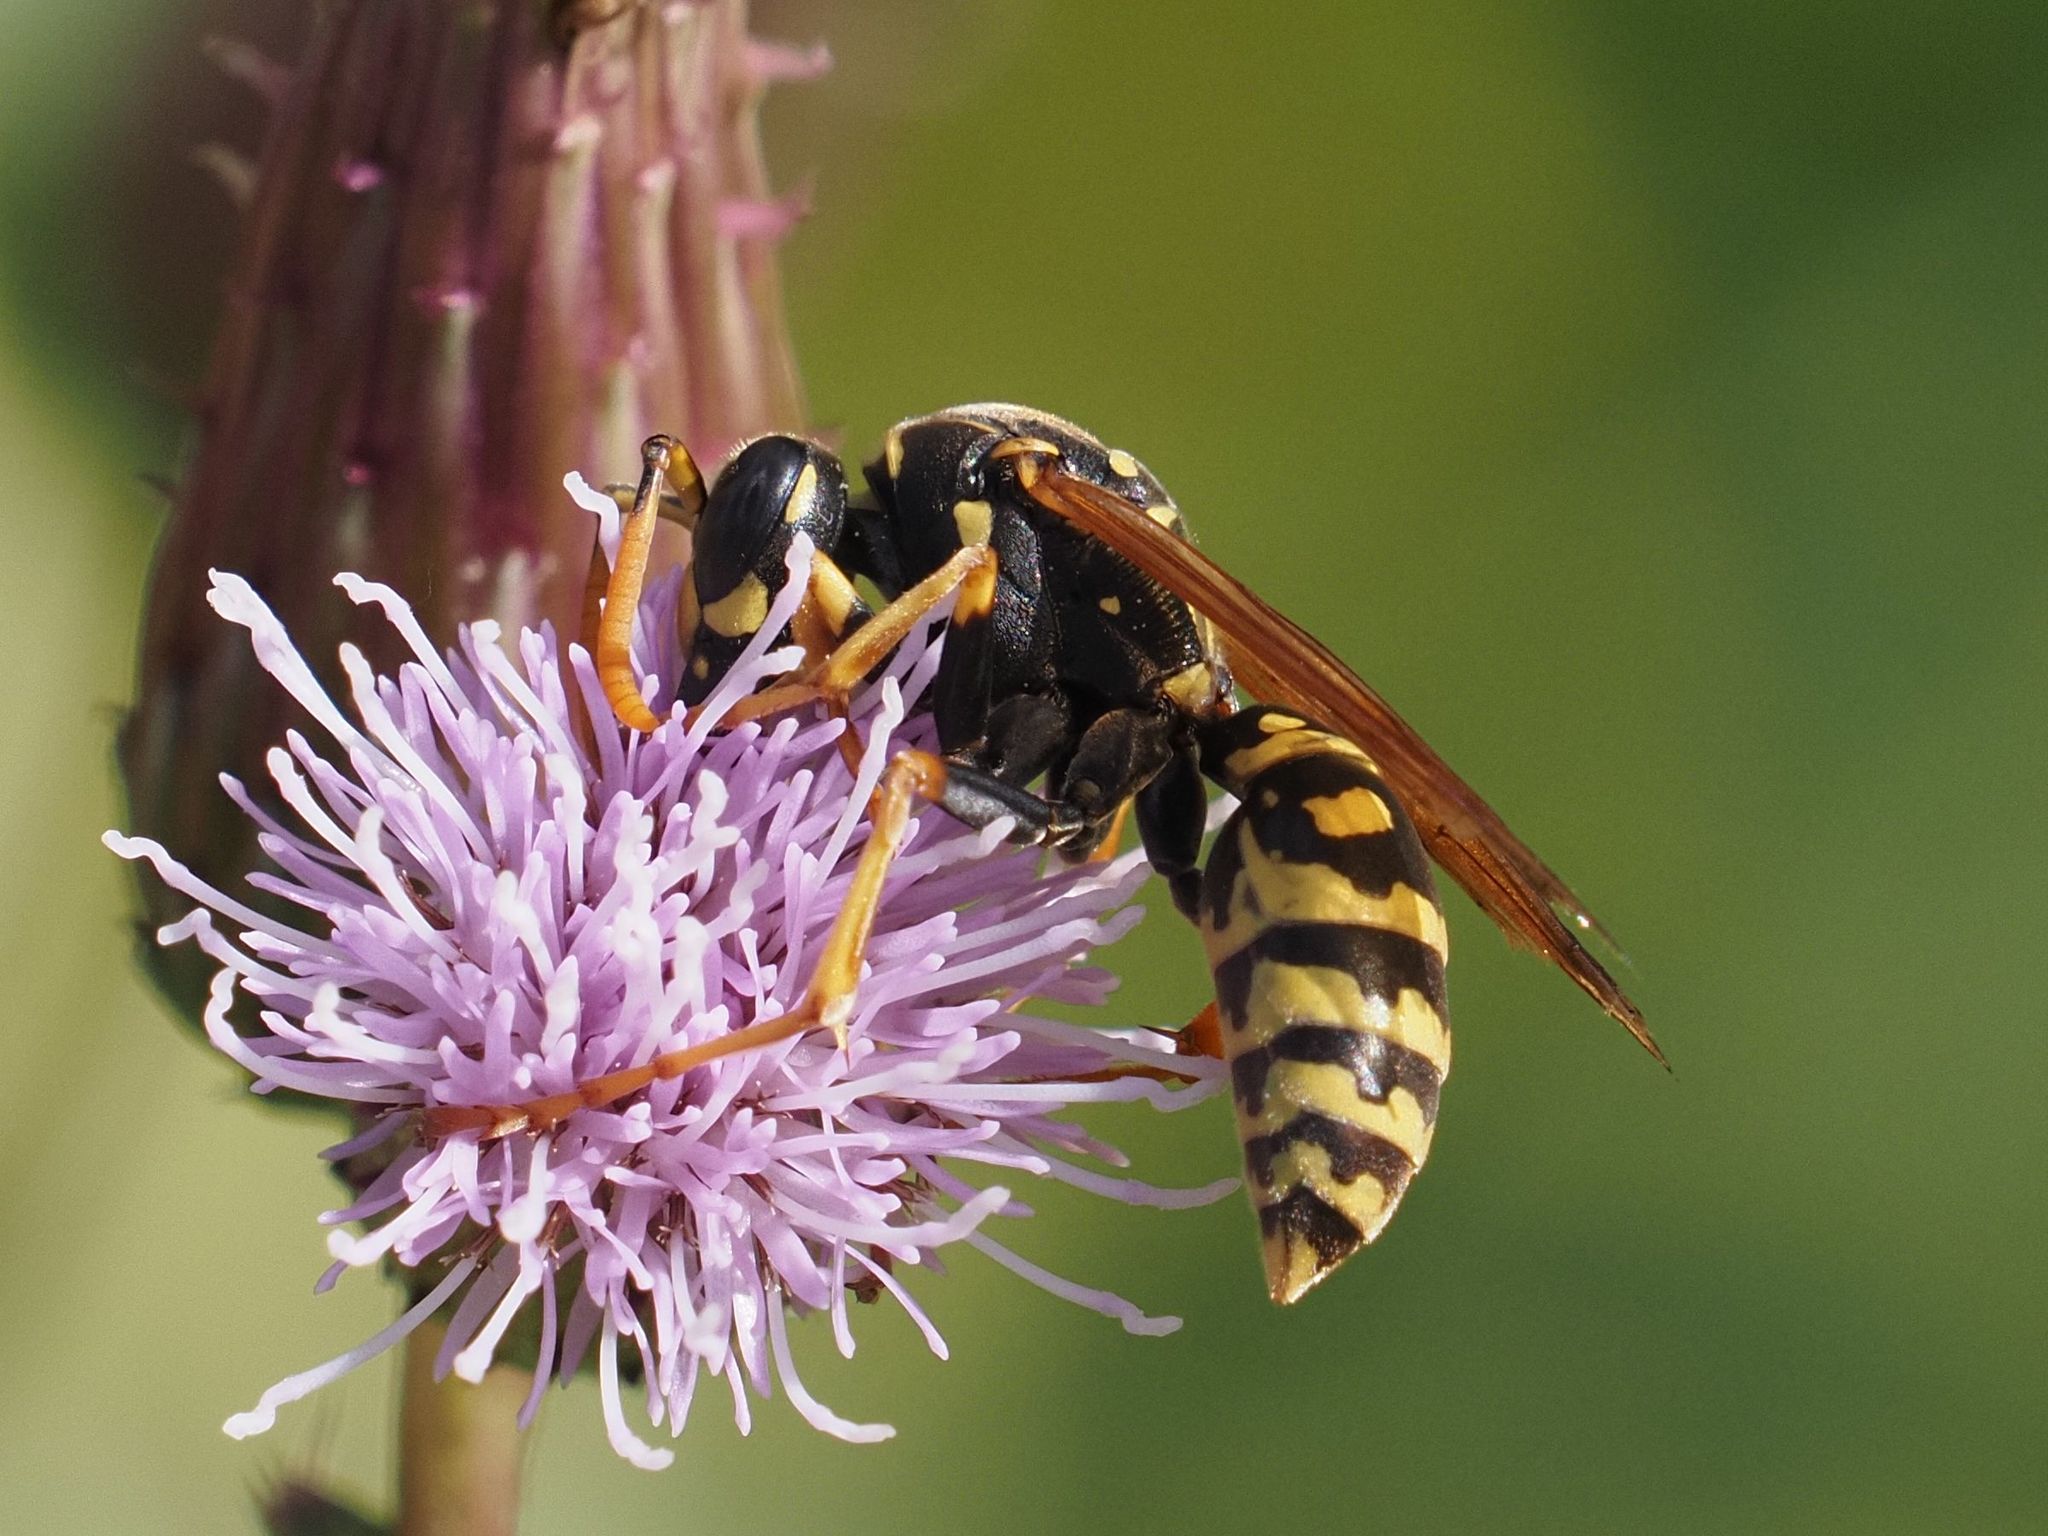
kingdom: Animalia
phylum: Arthropoda
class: Insecta
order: Hymenoptera
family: Eumenidae
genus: Polistes
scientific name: Polistes dominula
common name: Paper wasp
